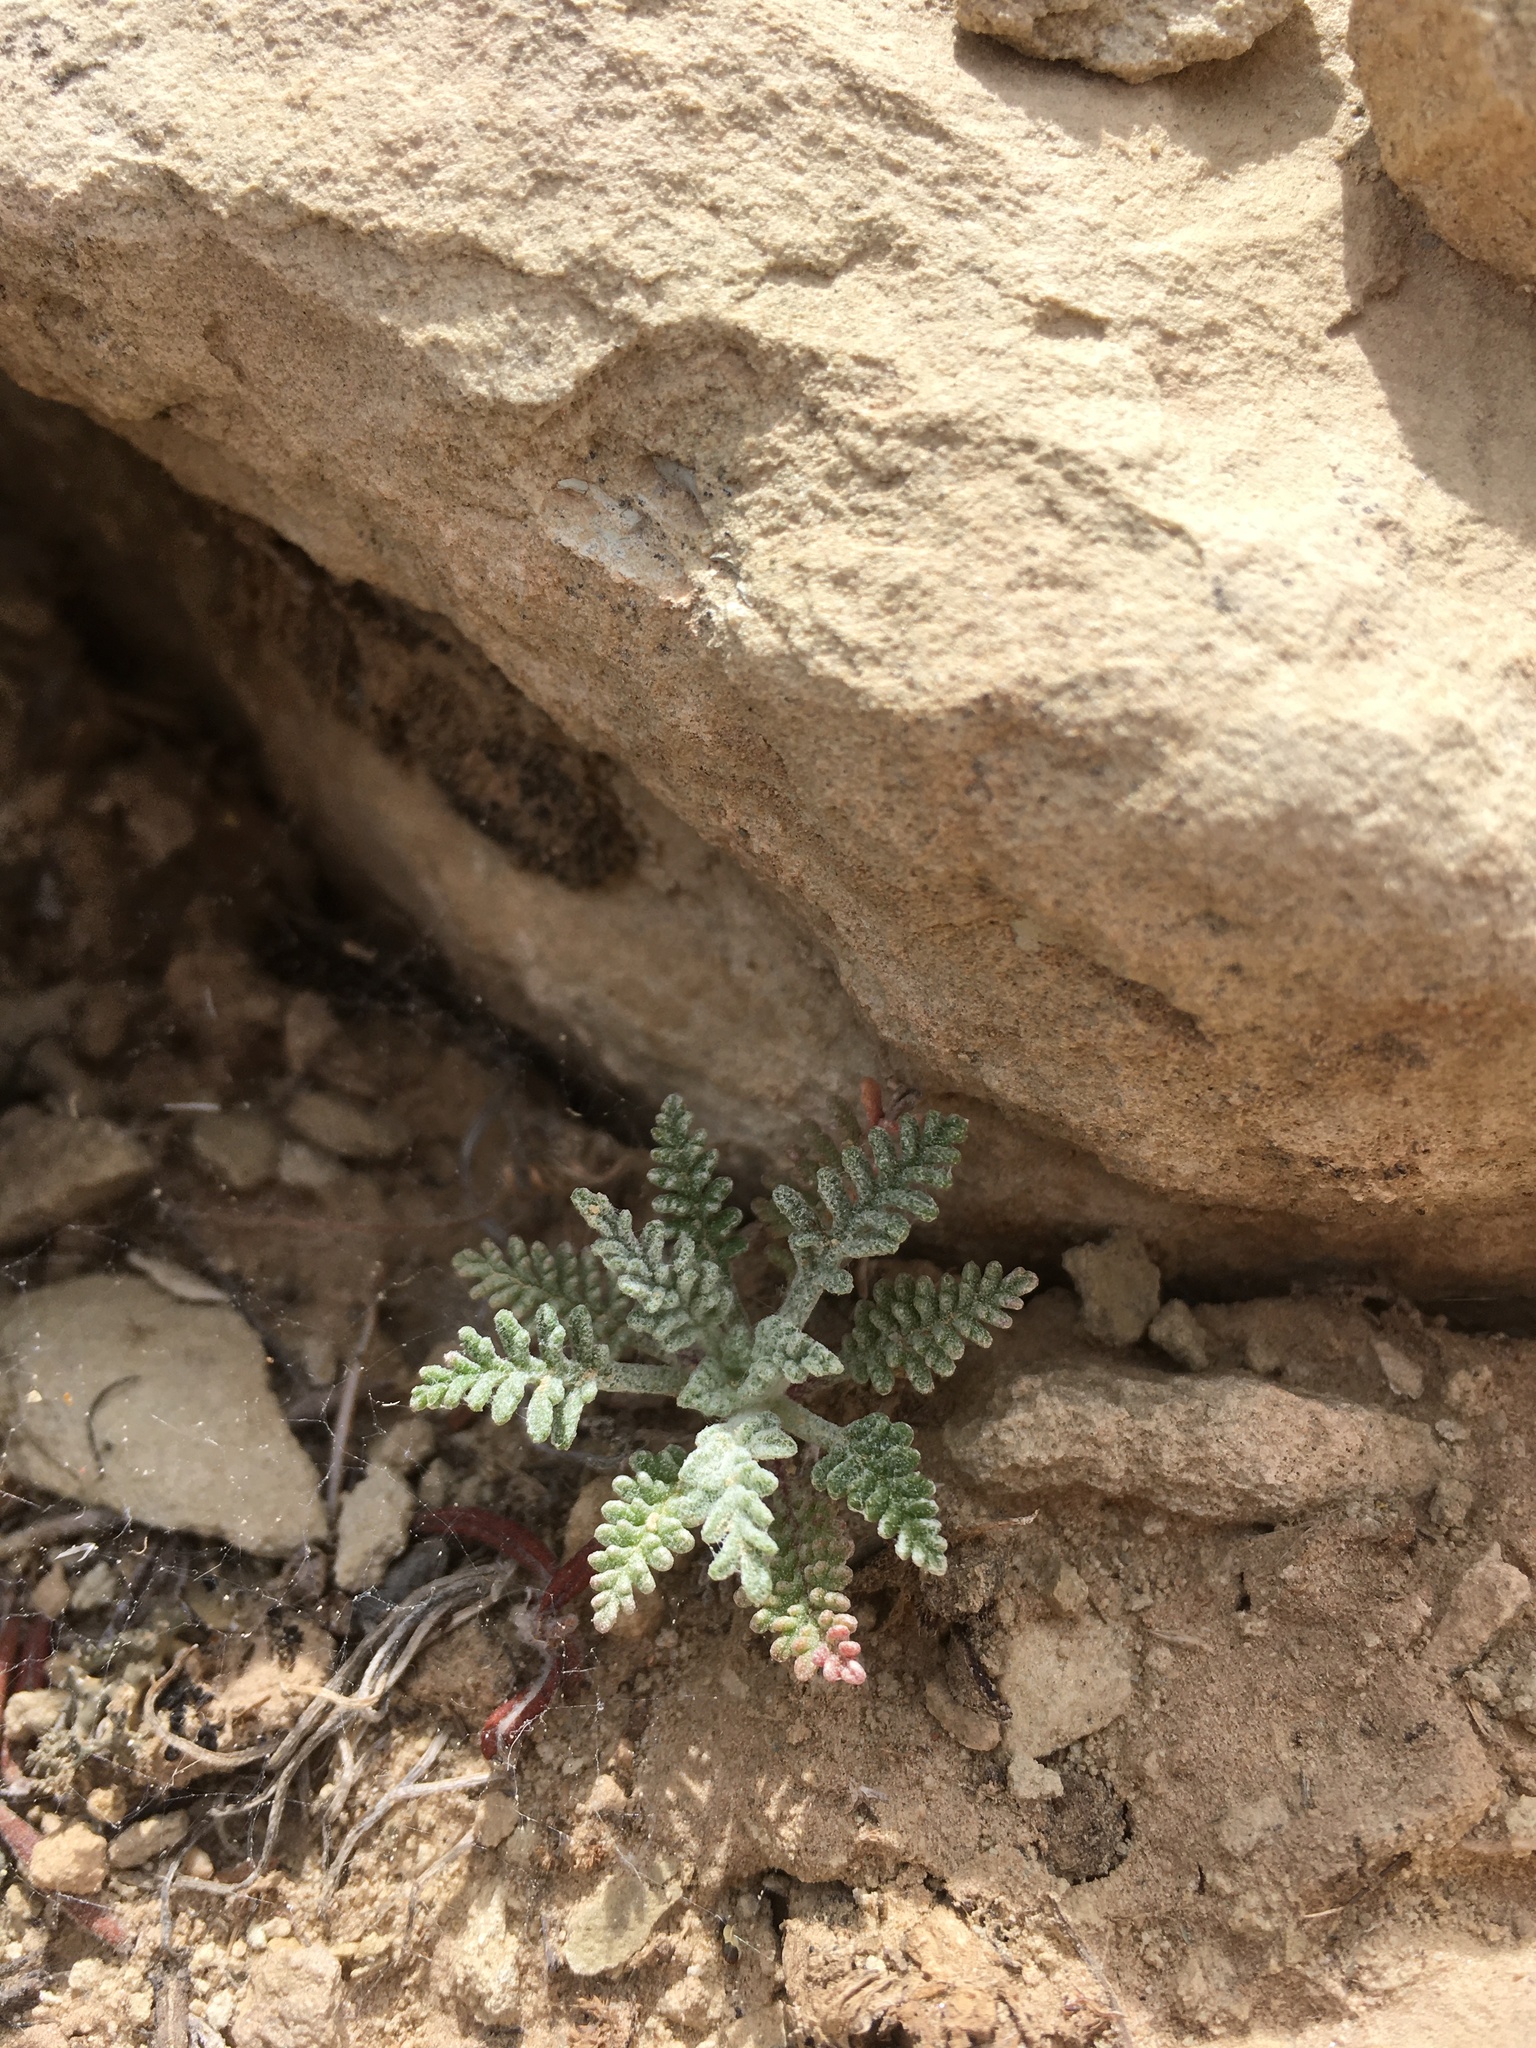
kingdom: Plantae
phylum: Tracheophyta
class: Magnoliopsida
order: Asterales
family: Asteraceae
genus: Chaenactis
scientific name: Chaenactis douglasii
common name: Hoary pincushion
